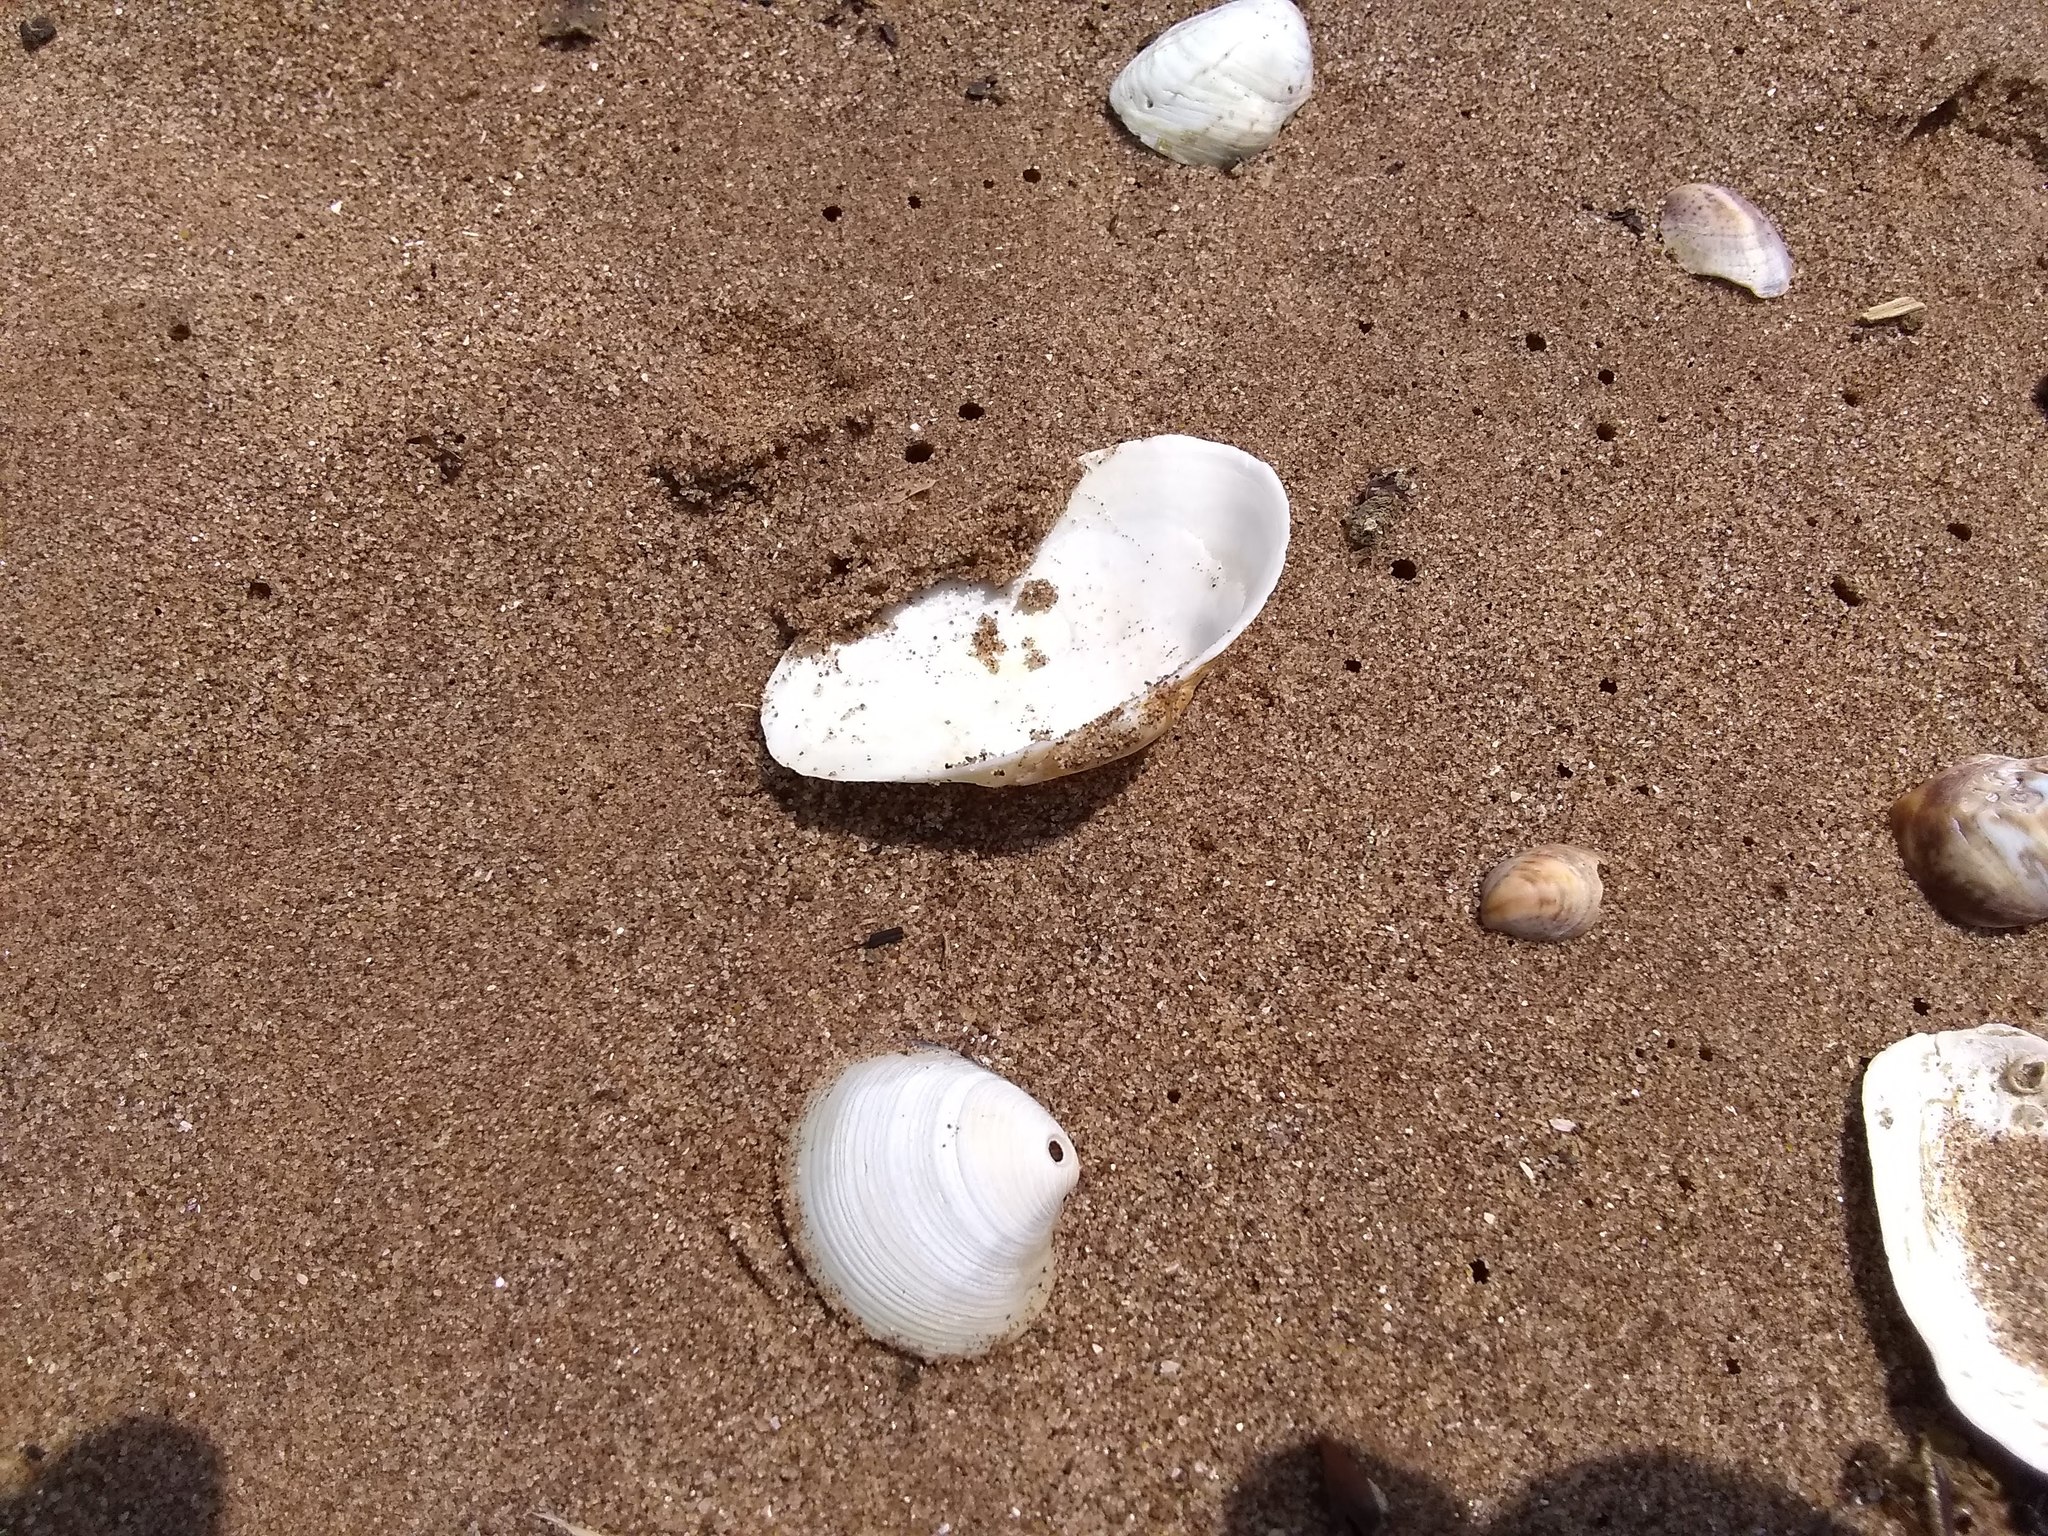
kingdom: Animalia
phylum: Mollusca
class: Bivalvia
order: Myida
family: Myidae
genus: Mya
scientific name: Mya arenaria
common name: Soft-shelled clam
